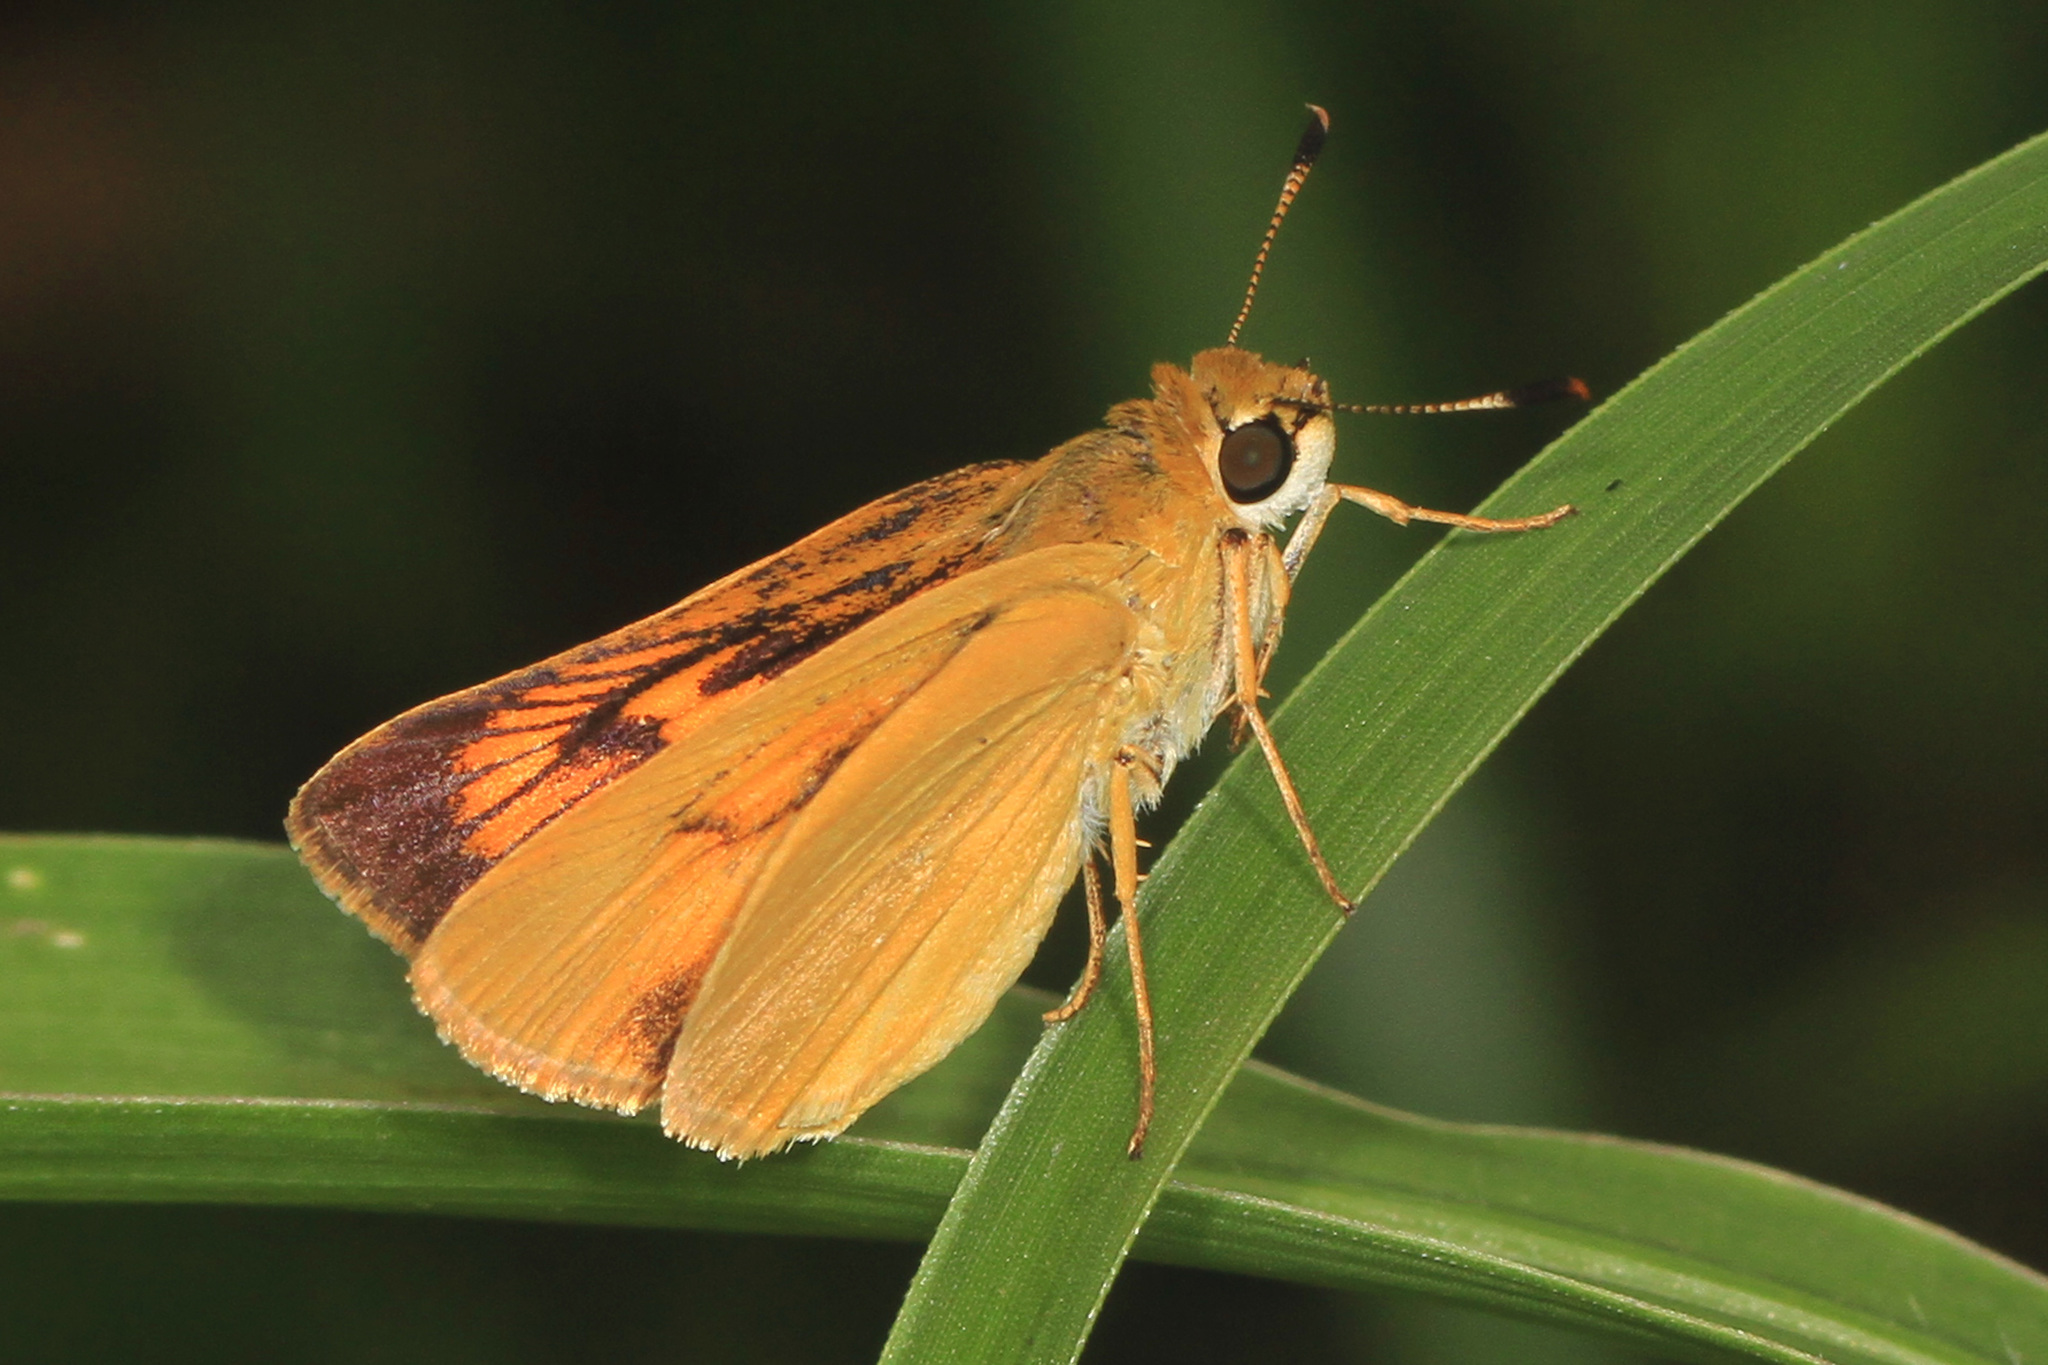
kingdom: Animalia
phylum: Arthropoda
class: Insecta
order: Lepidoptera
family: Hesperiidae
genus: Atrytone
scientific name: Atrytone delaware
